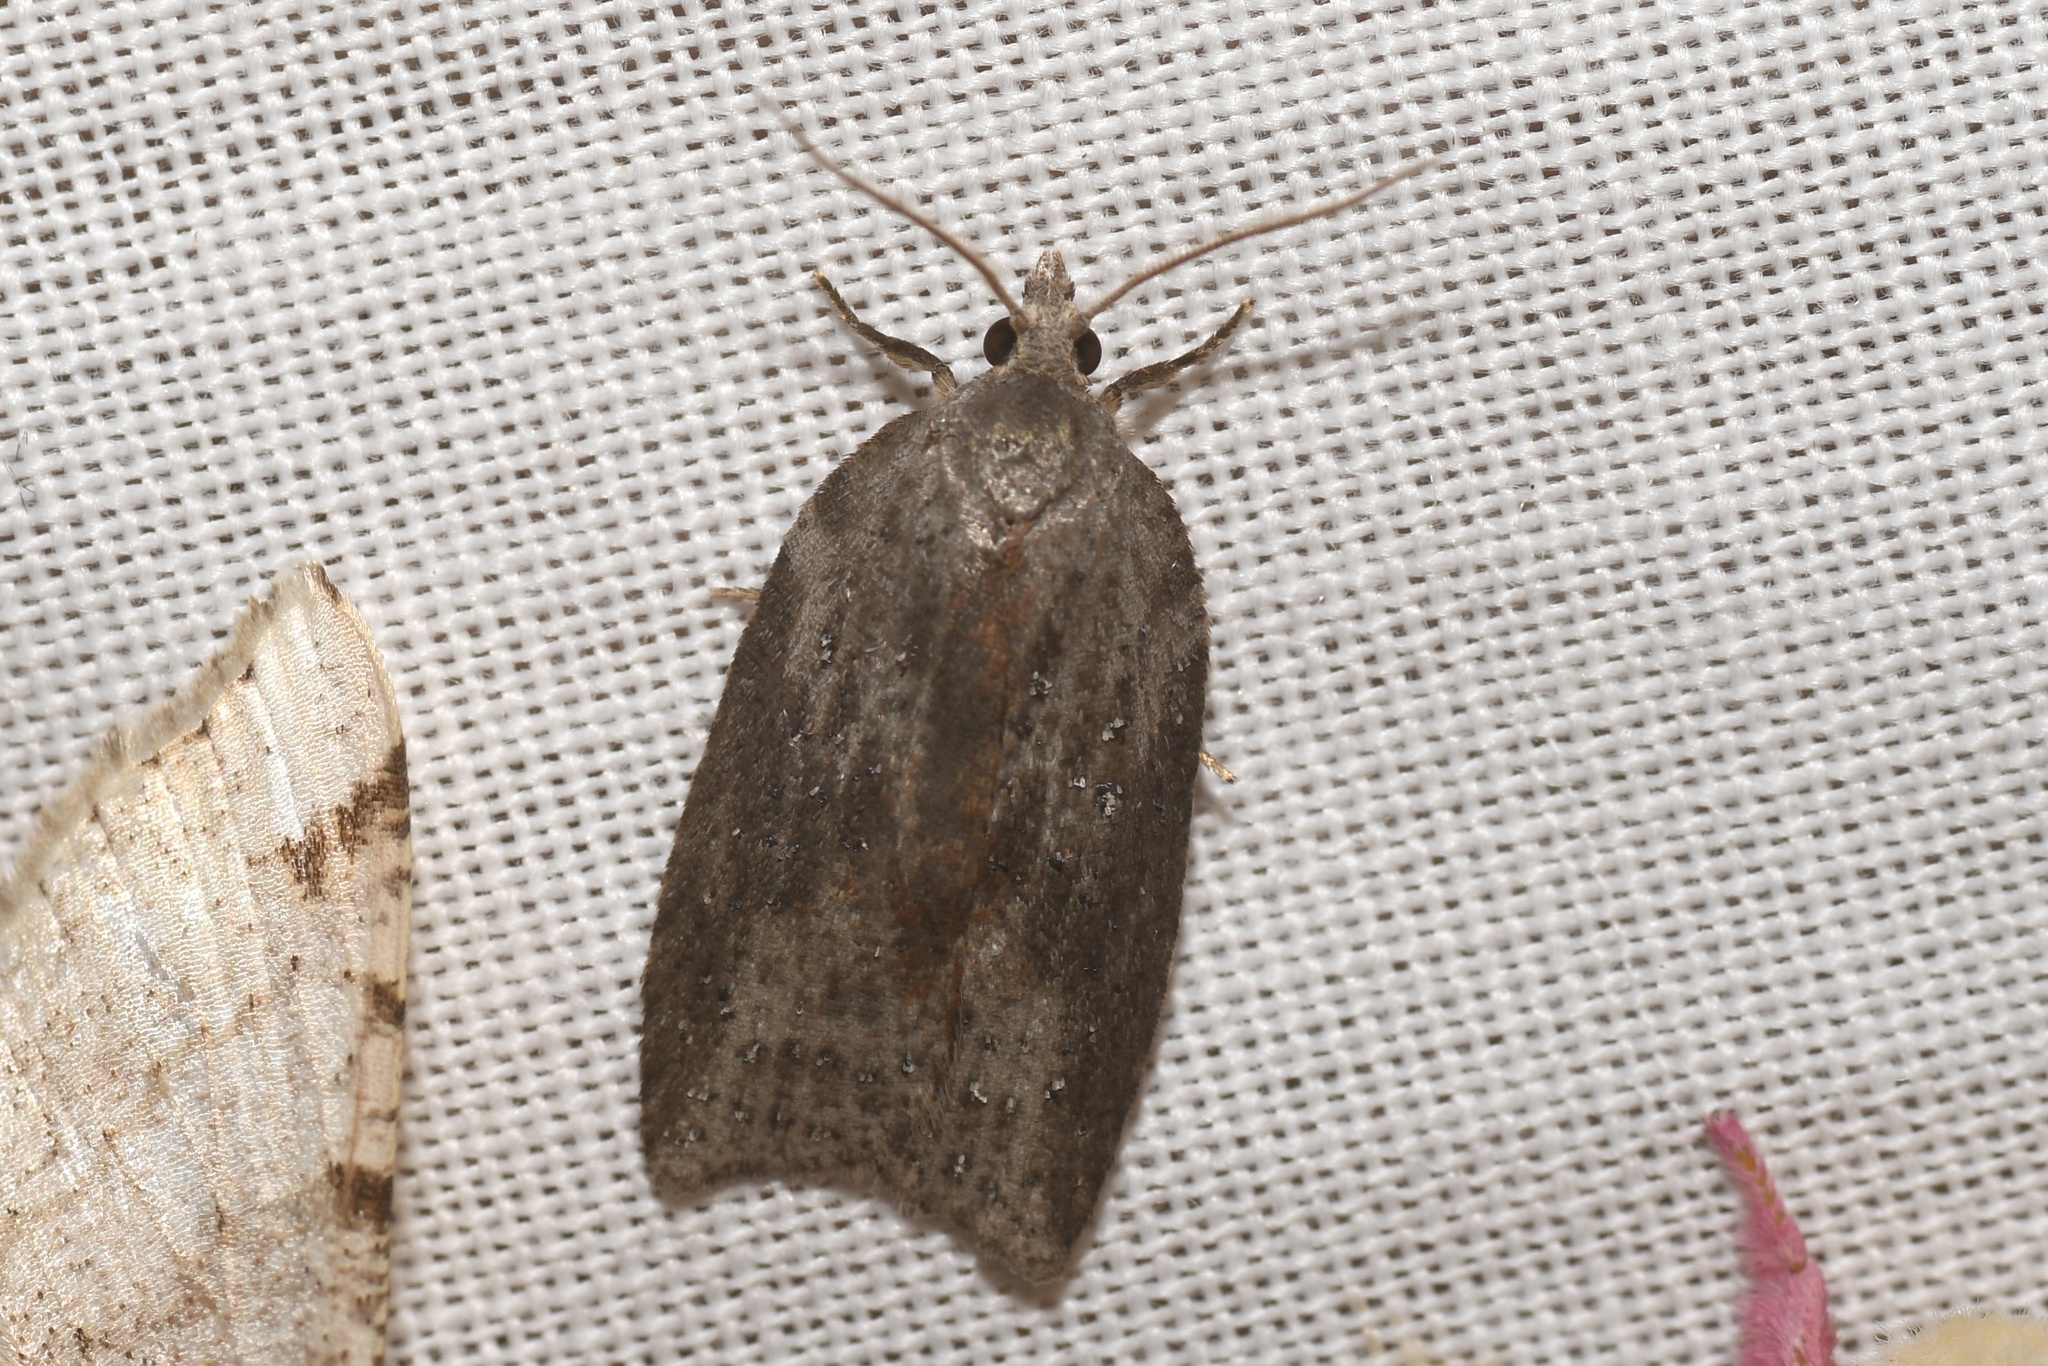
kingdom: Animalia
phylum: Arthropoda
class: Insecta
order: Lepidoptera
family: Tortricidae
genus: Amorbia
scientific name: Amorbia humerosana
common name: White-lined leafroller moth
